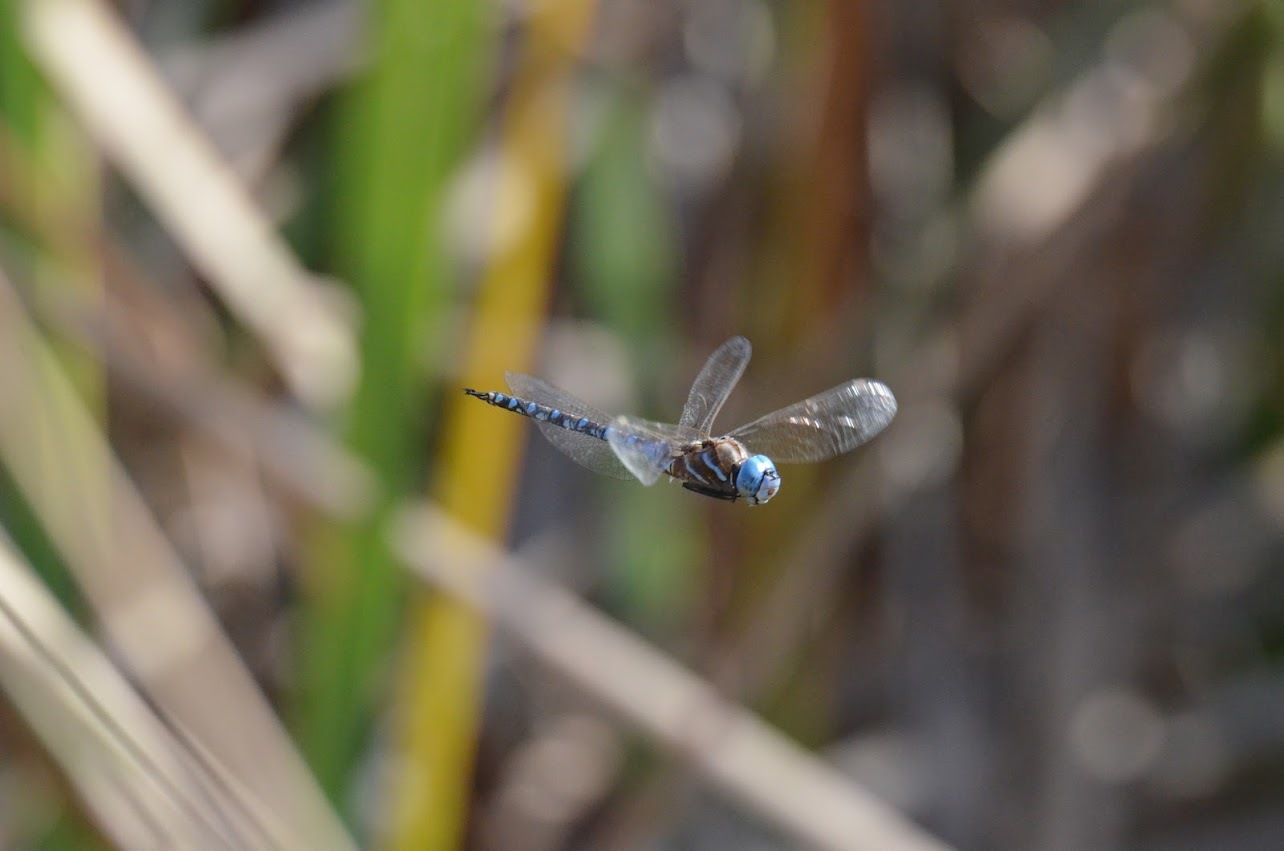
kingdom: Animalia
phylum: Arthropoda
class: Insecta
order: Odonata
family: Aeshnidae
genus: Rhionaeschna
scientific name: Rhionaeschna multicolor
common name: Blue-eyed darner
